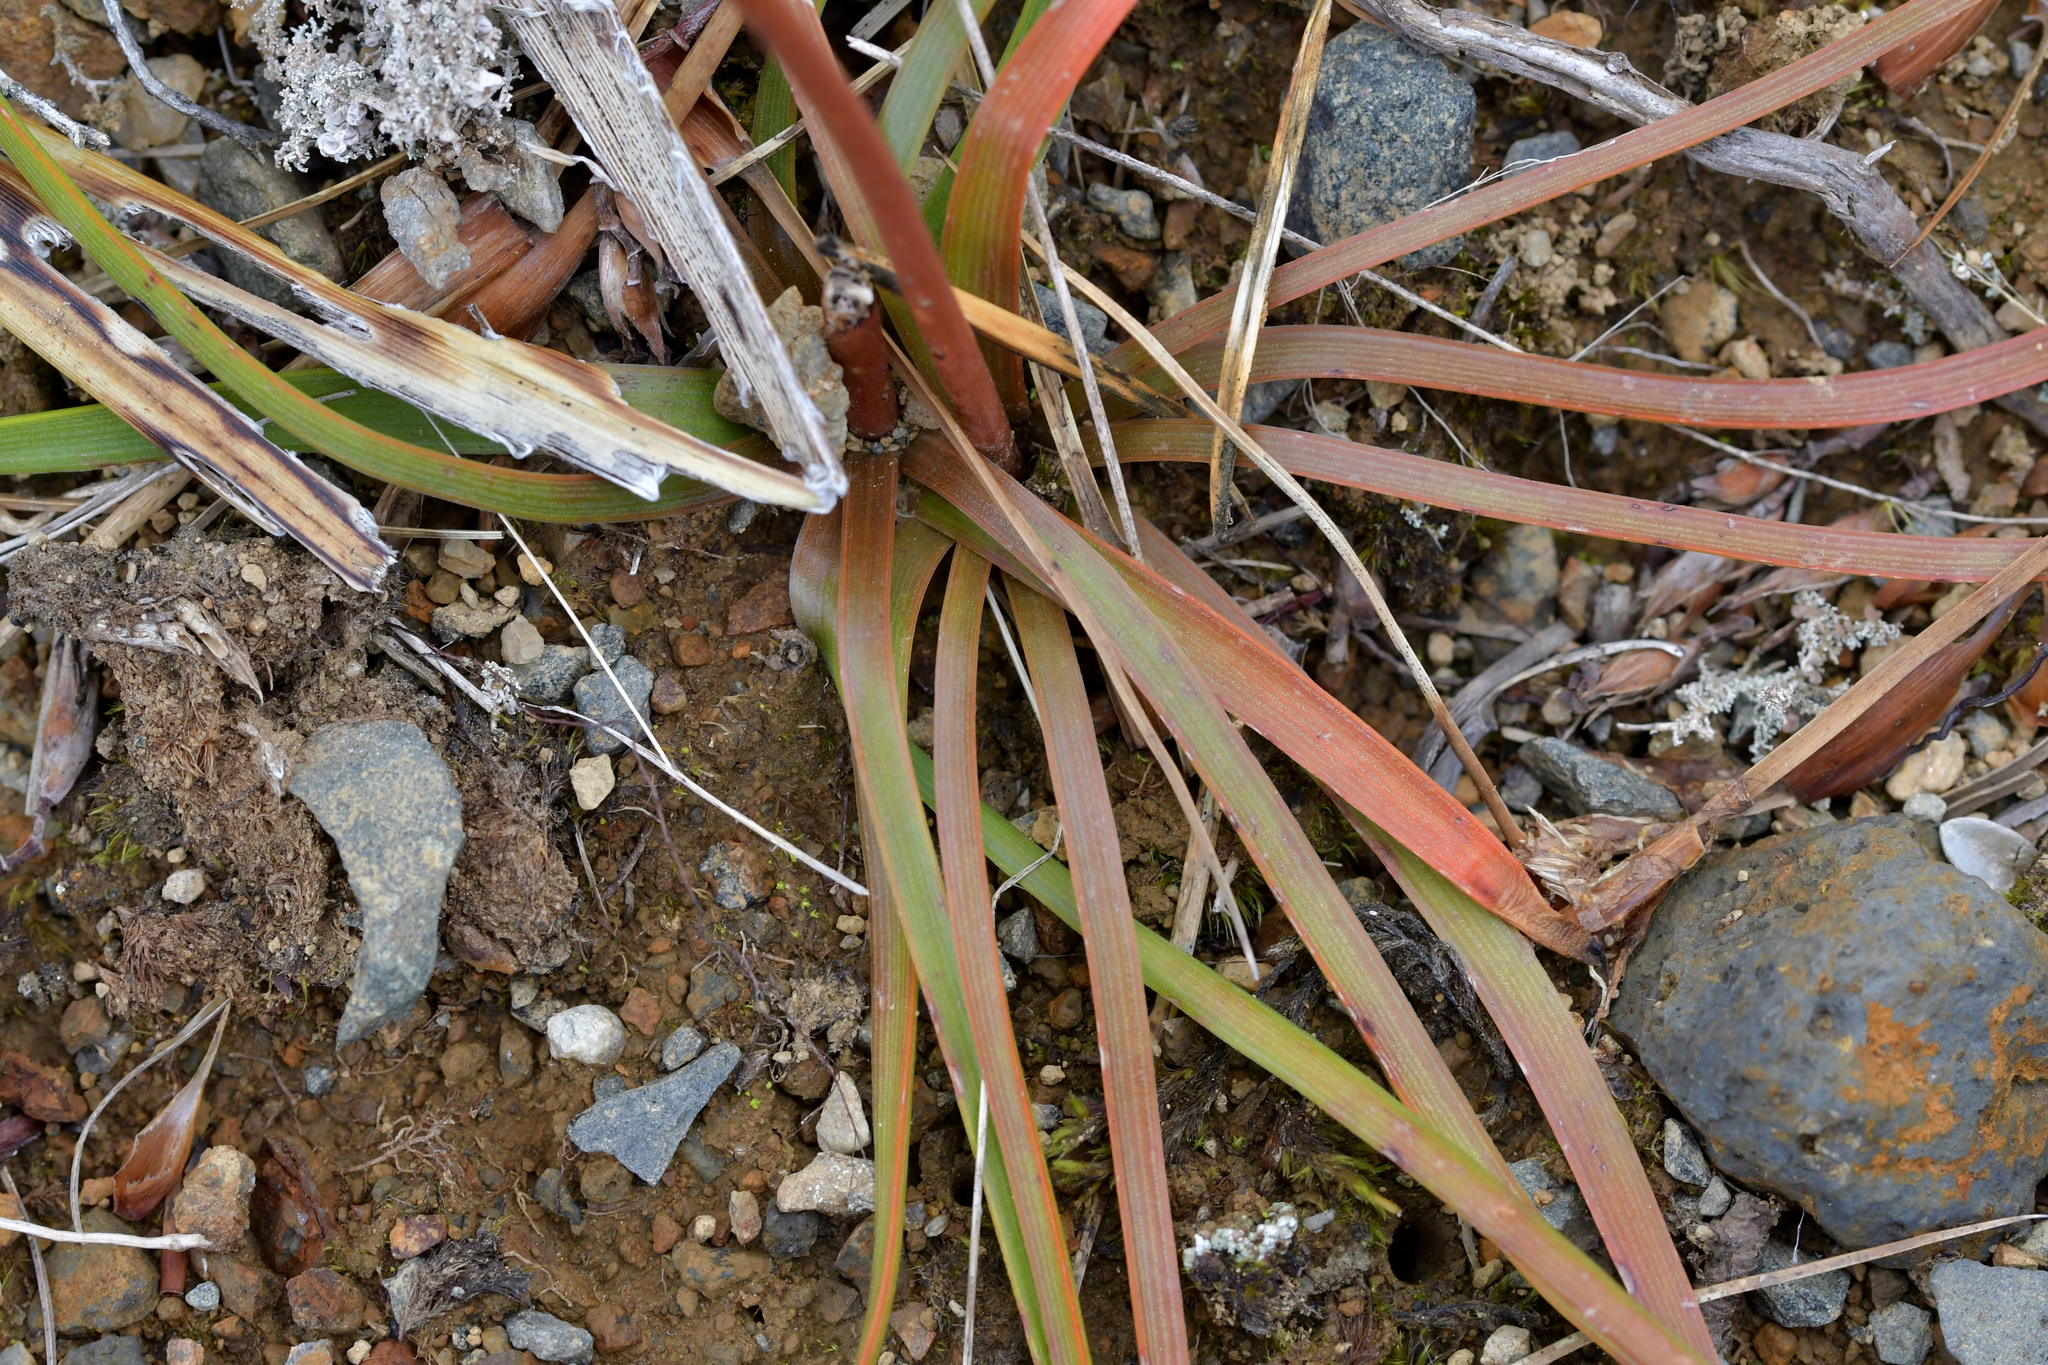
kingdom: Plantae
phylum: Tracheophyta
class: Liliopsida
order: Asparagales
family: Asphodelaceae
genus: Bulbinella
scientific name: Bulbinella angustifolia
